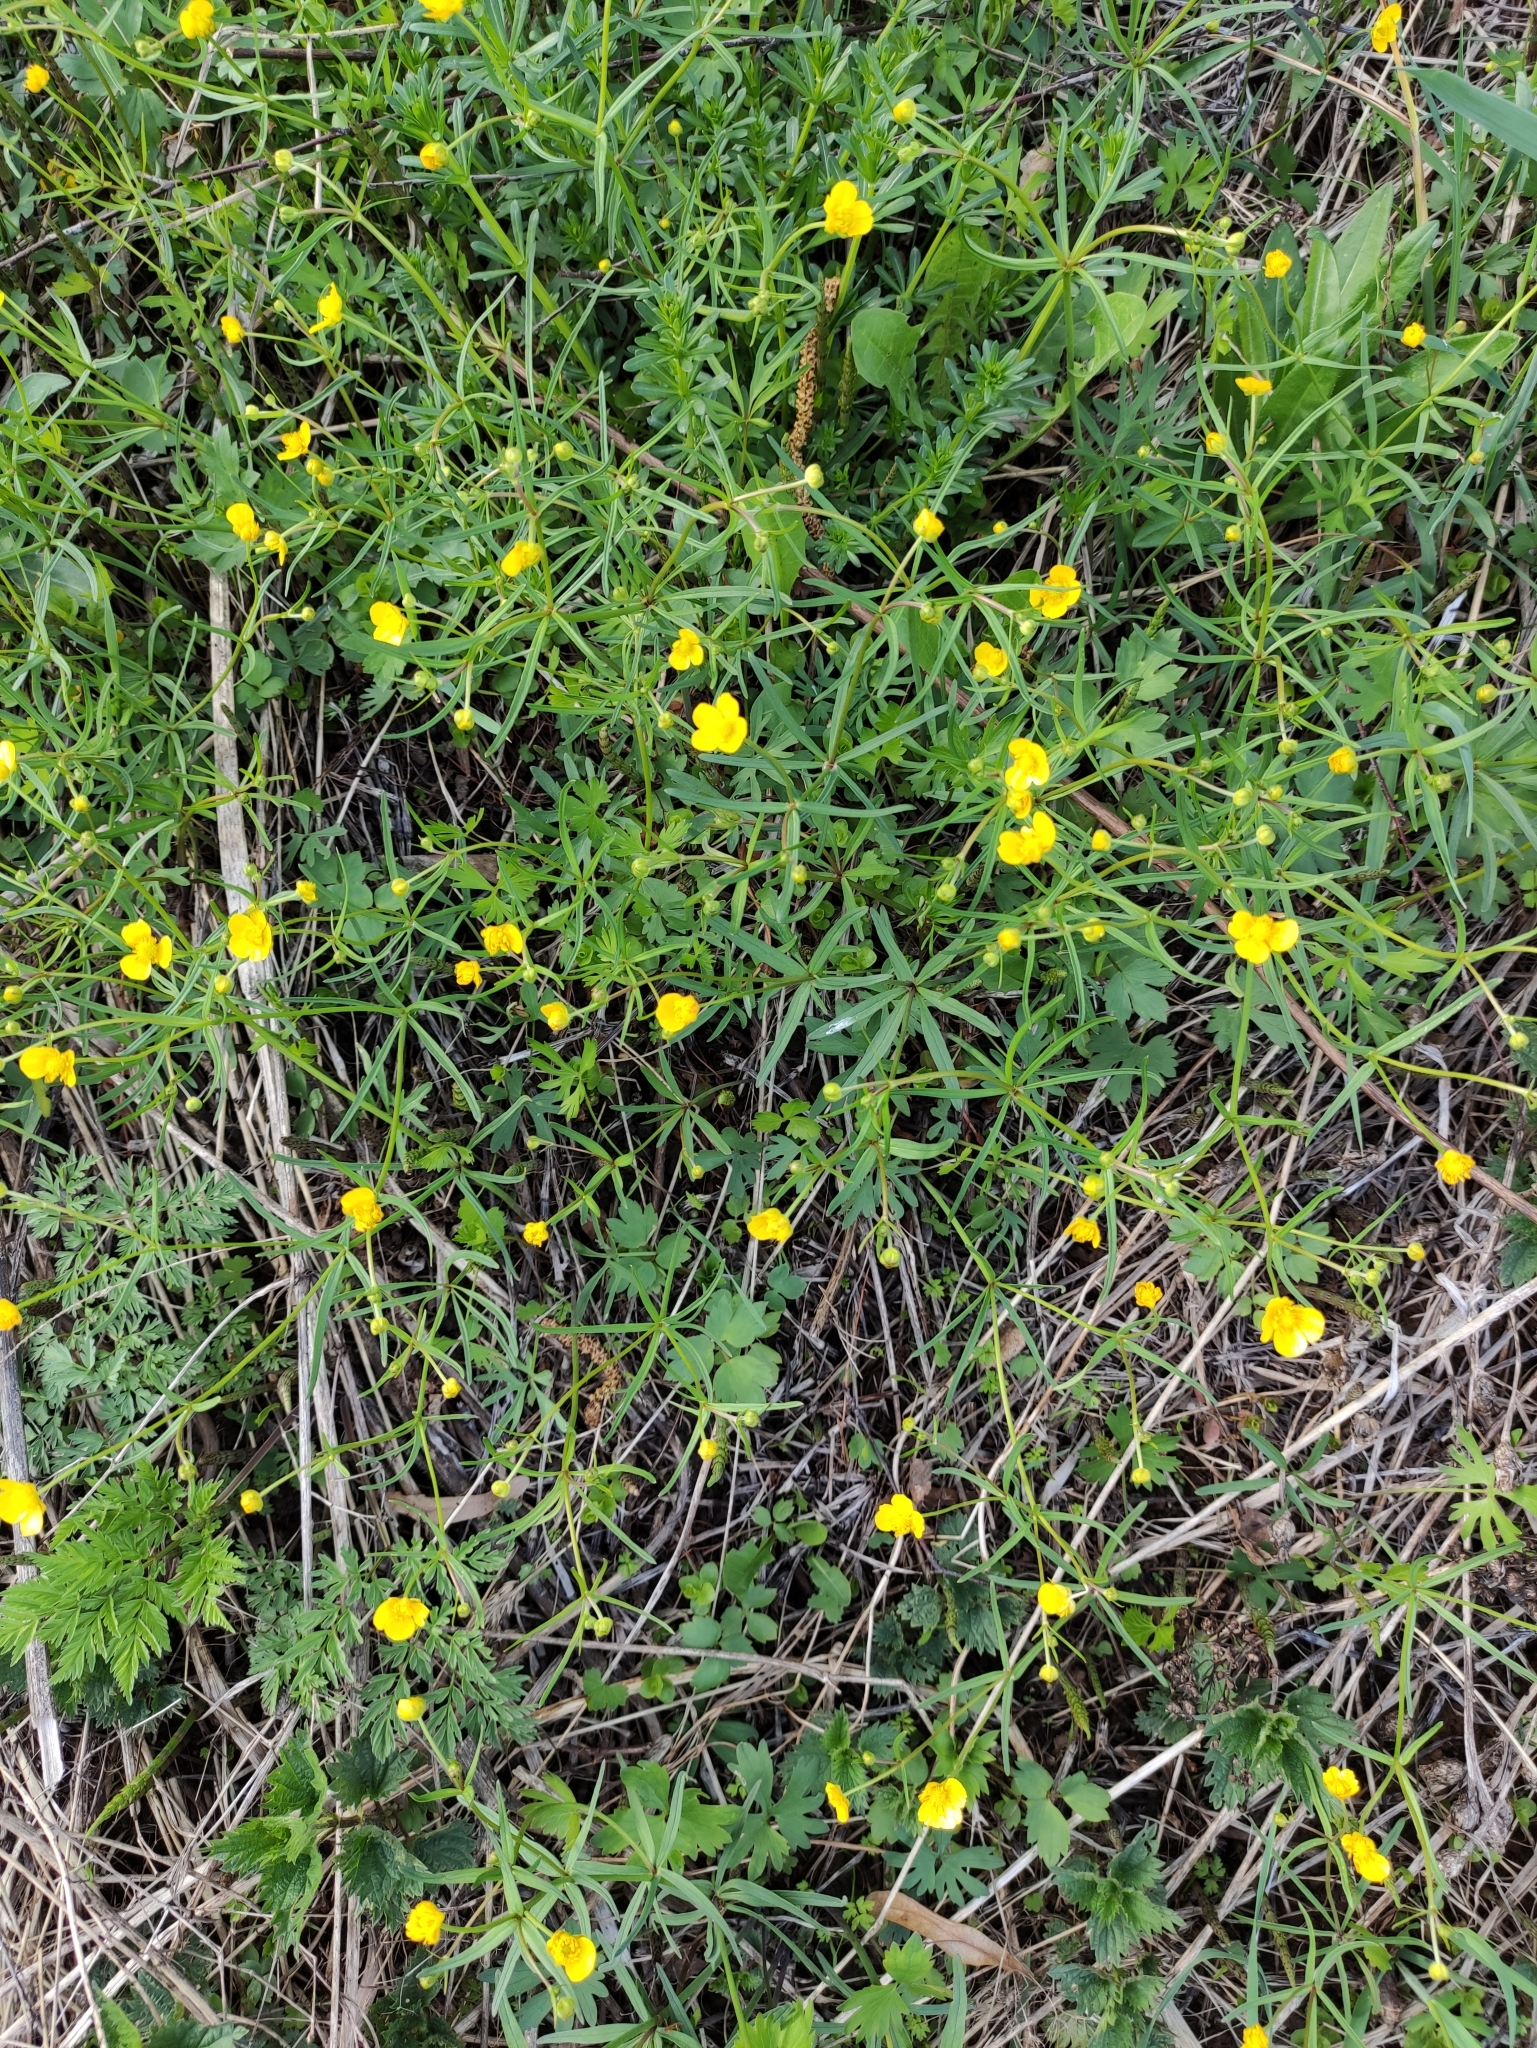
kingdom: Plantae
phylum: Tracheophyta
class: Magnoliopsida
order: Ranunculales
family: Ranunculaceae
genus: Ranunculus
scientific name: Ranunculus auricomus
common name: Goldilocks buttercup
